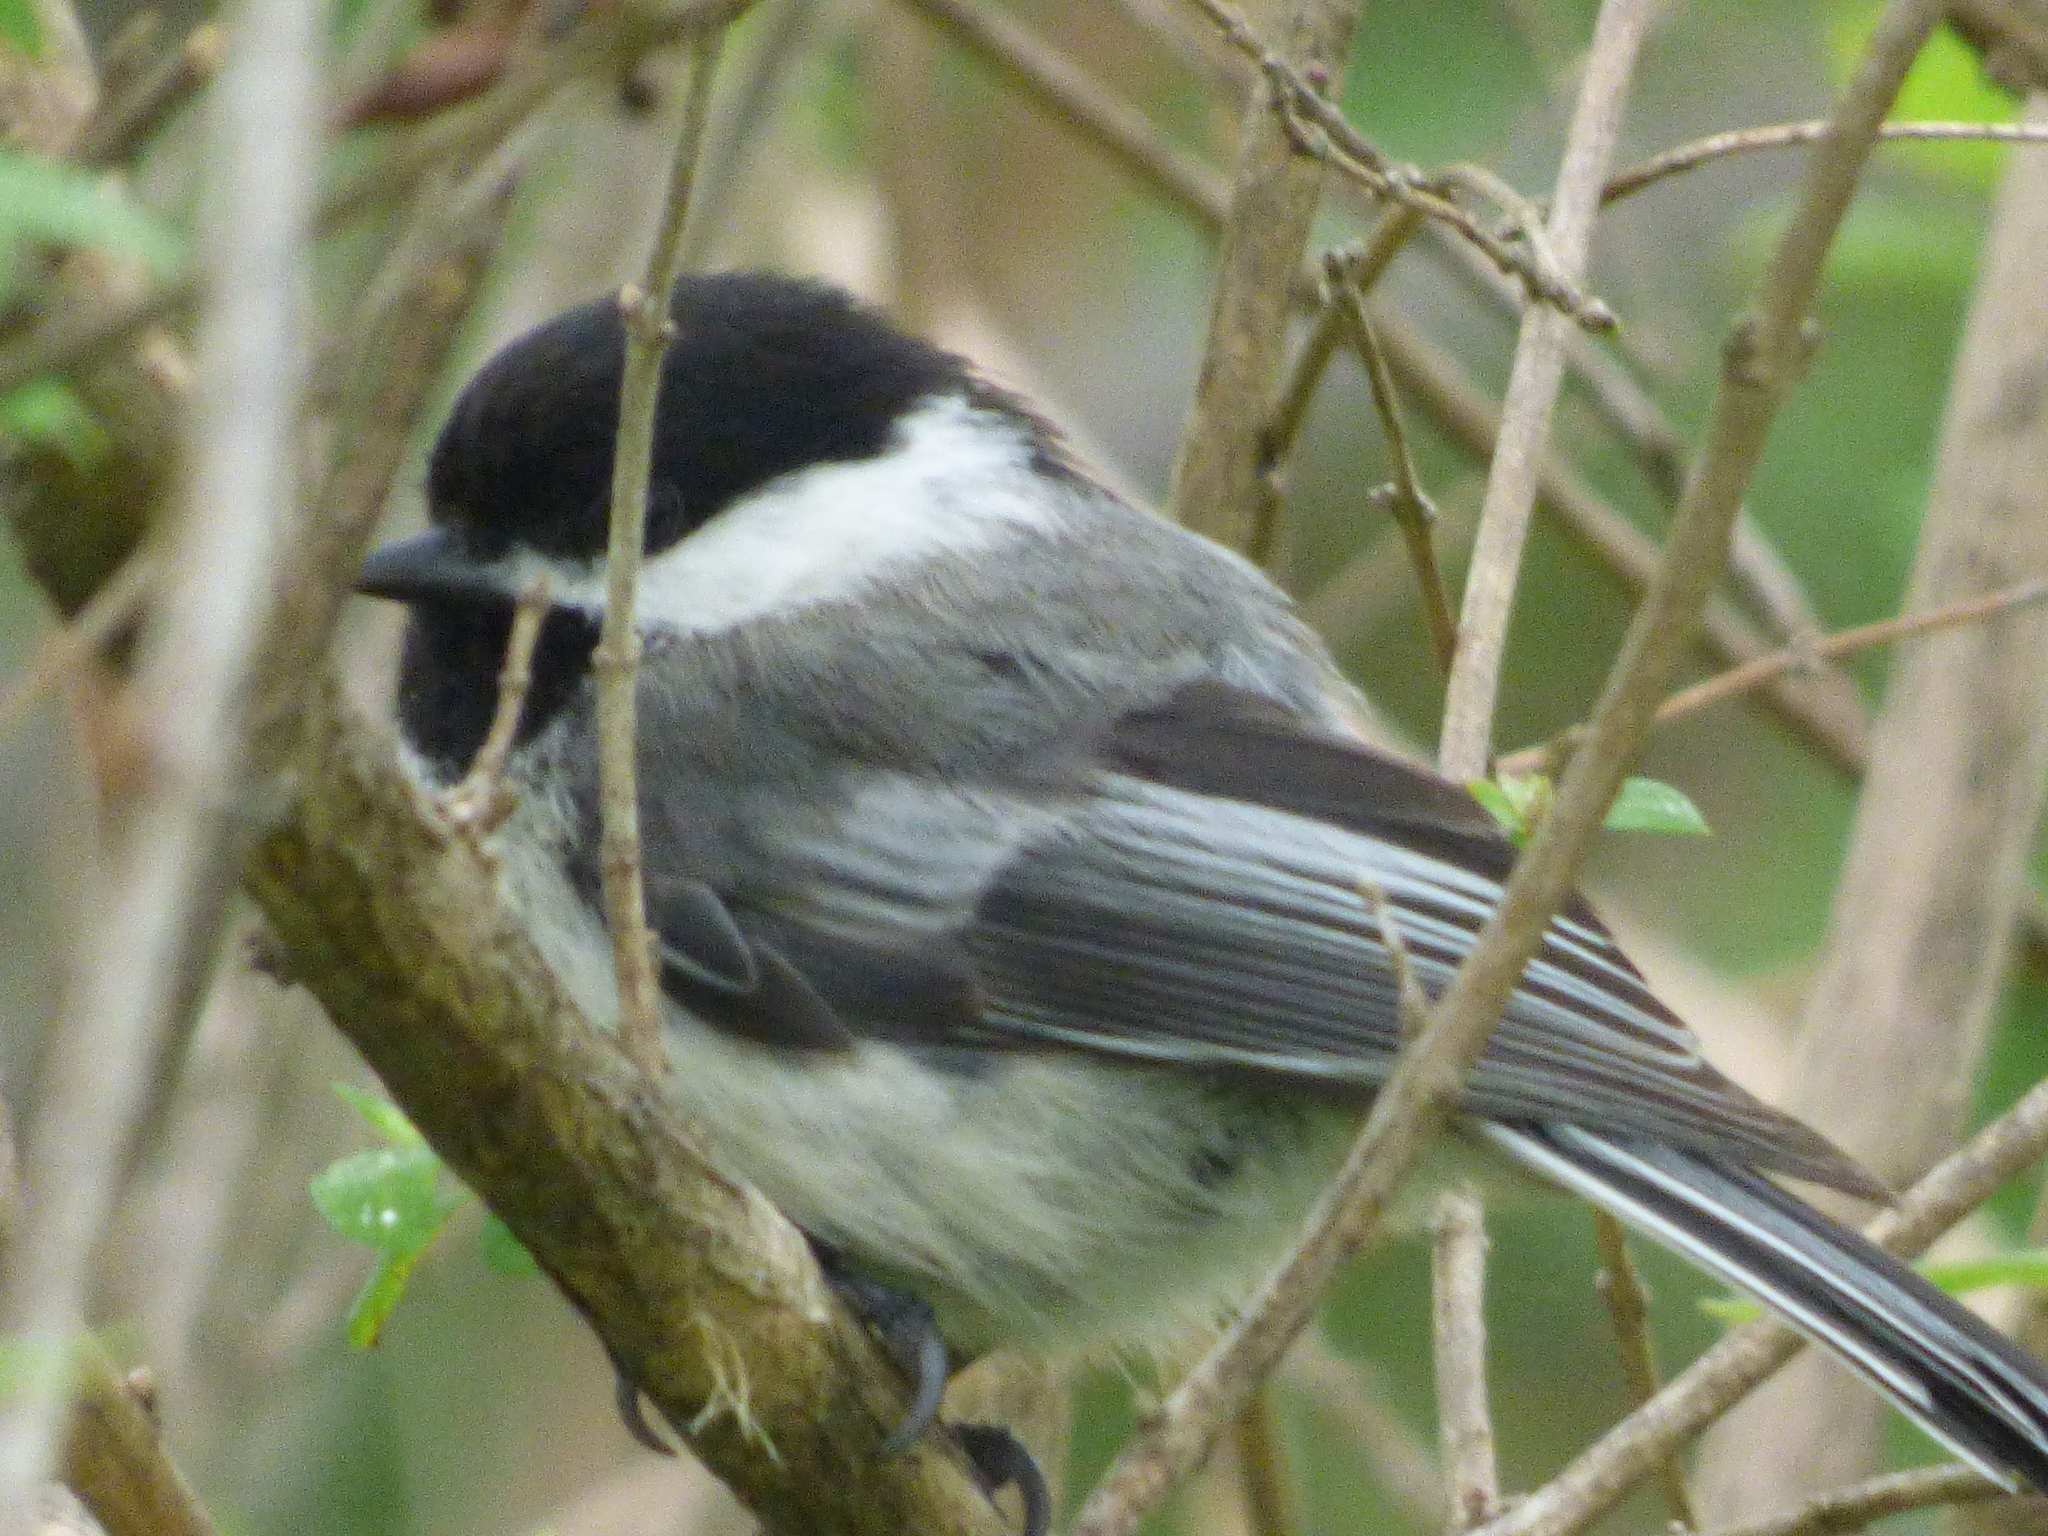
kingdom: Animalia
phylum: Chordata
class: Aves
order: Passeriformes
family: Paridae
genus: Poecile
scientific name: Poecile atricapillus
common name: Black-capped chickadee
